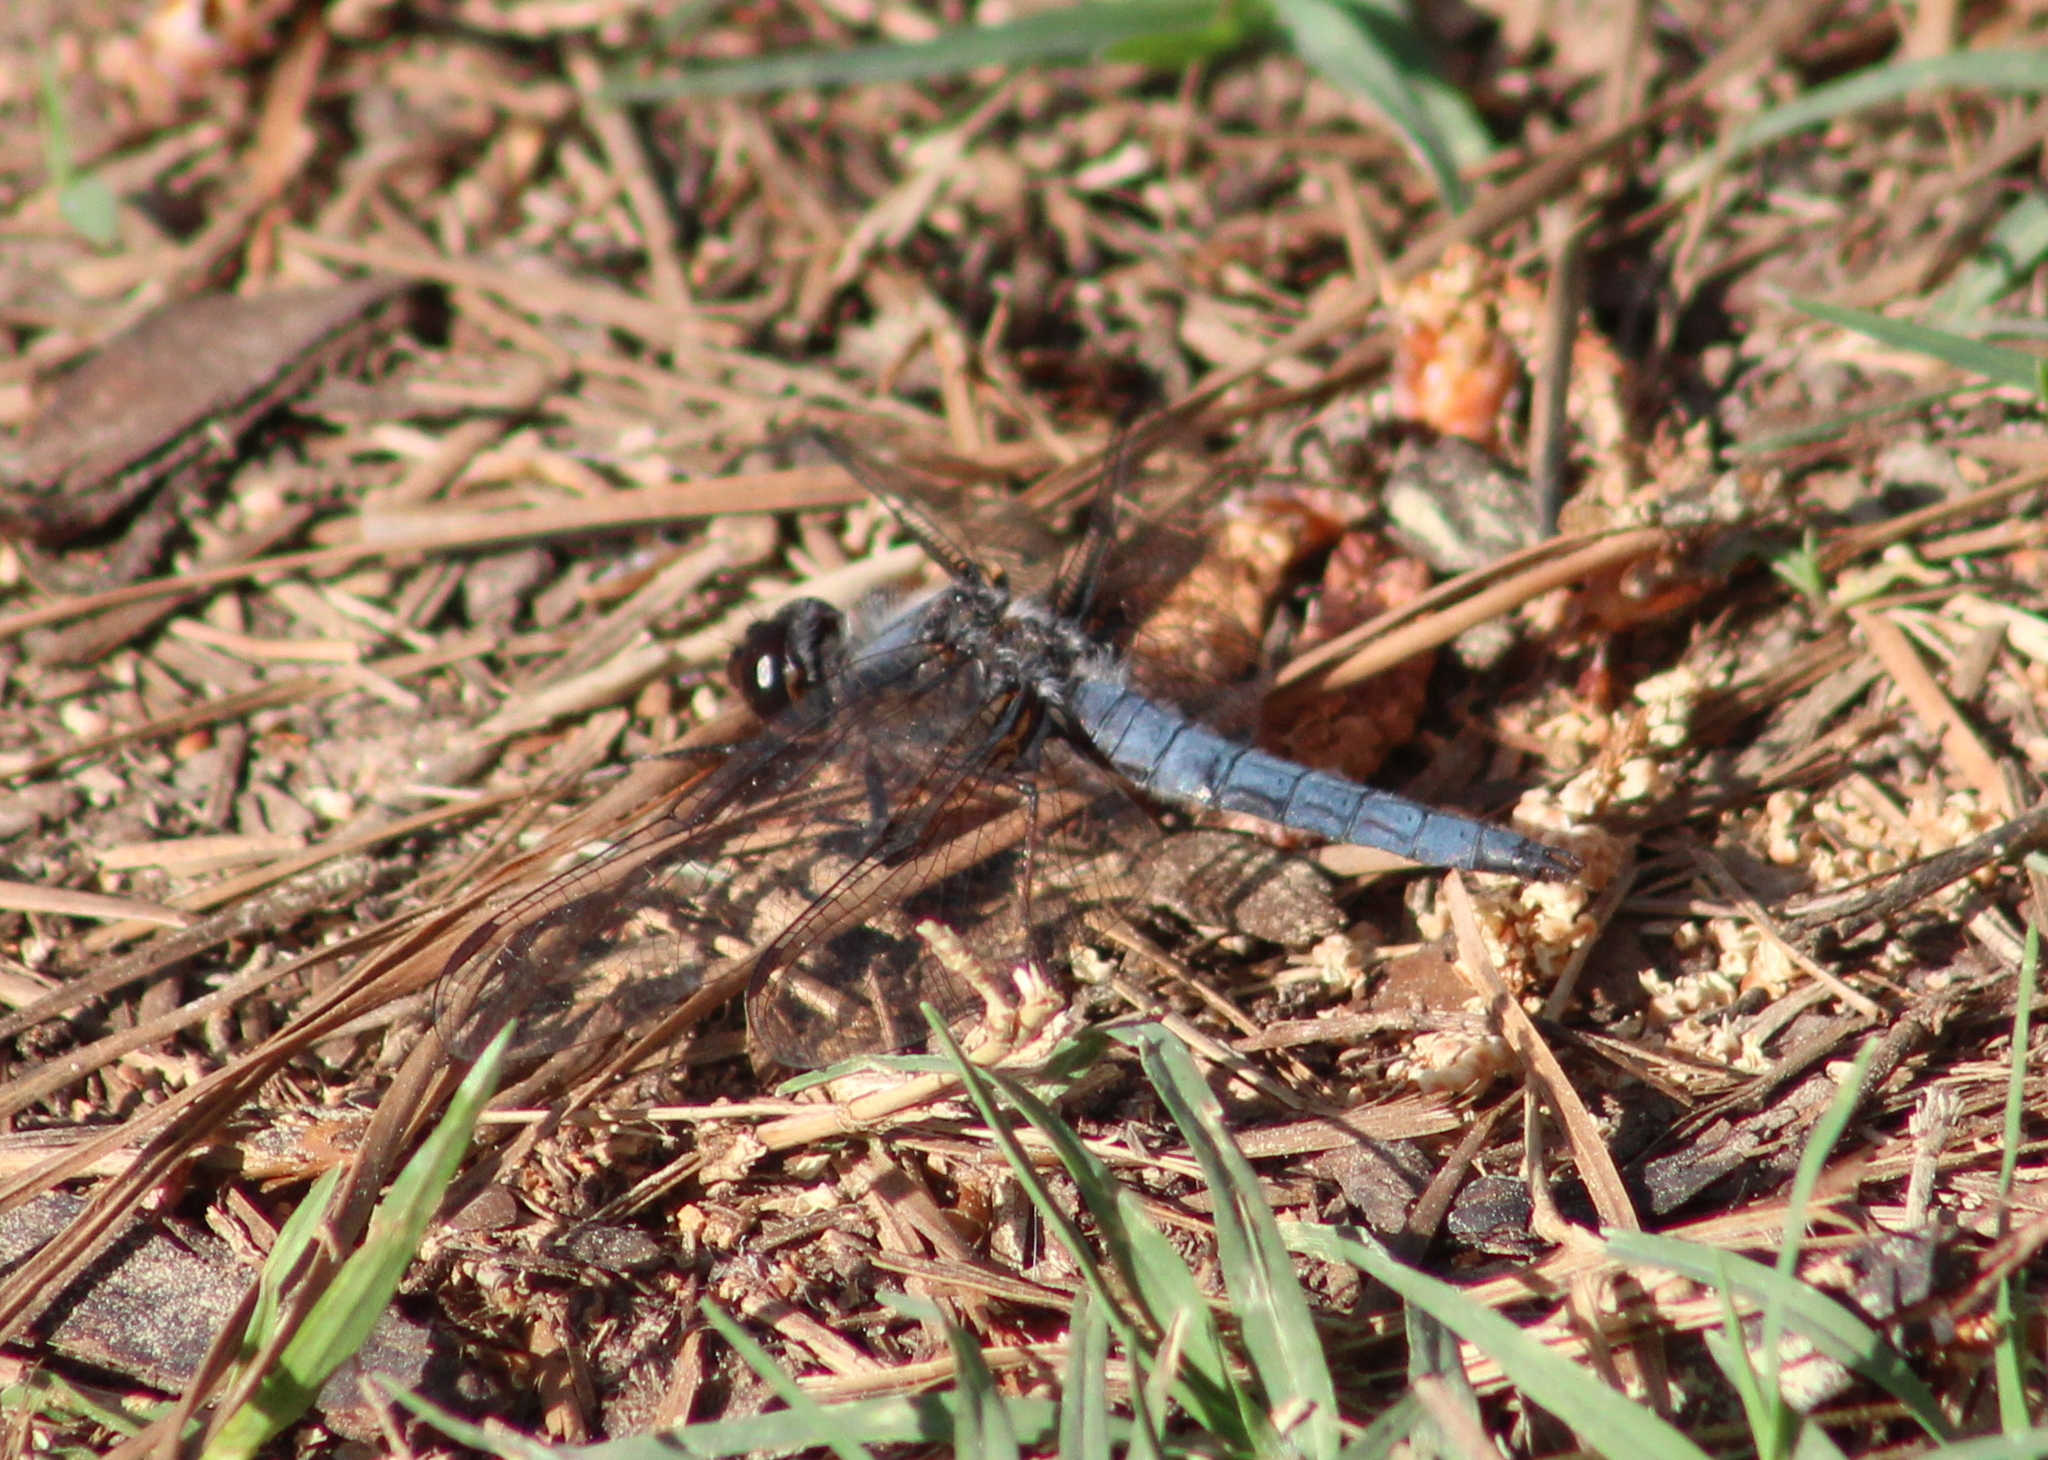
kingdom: Animalia
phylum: Arthropoda
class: Insecta
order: Odonata
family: Libellulidae
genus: Ladona
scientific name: Ladona deplanata
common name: Blue corporal
